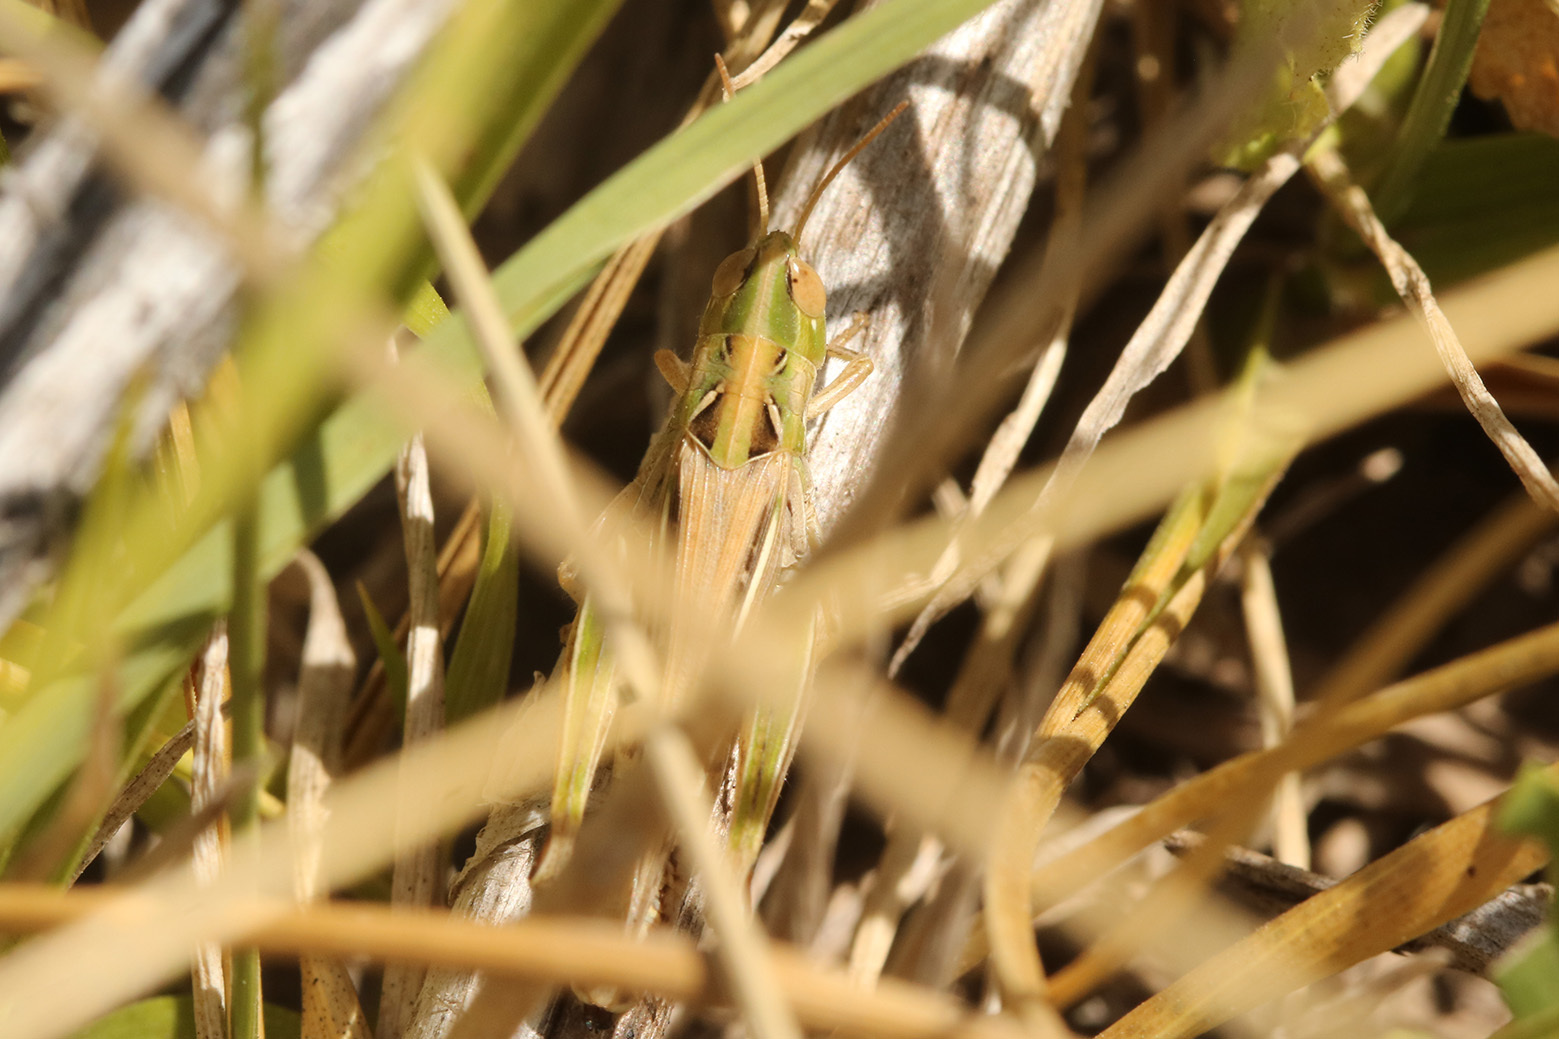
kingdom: Animalia
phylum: Arthropoda
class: Insecta
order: Orthoptera
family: Acrididae
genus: Borellia
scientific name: Borellia bruneri
